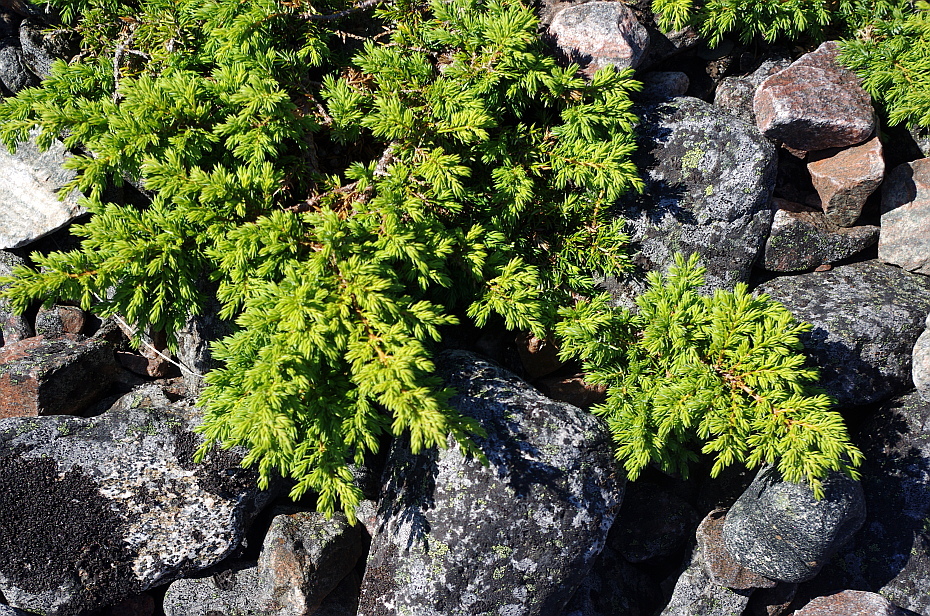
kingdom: Plantae
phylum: Tracheophyta
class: Pinopsida
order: Pinales
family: Cupressaceae
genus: Juniperus
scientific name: Juniperus communis
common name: Common juniper
